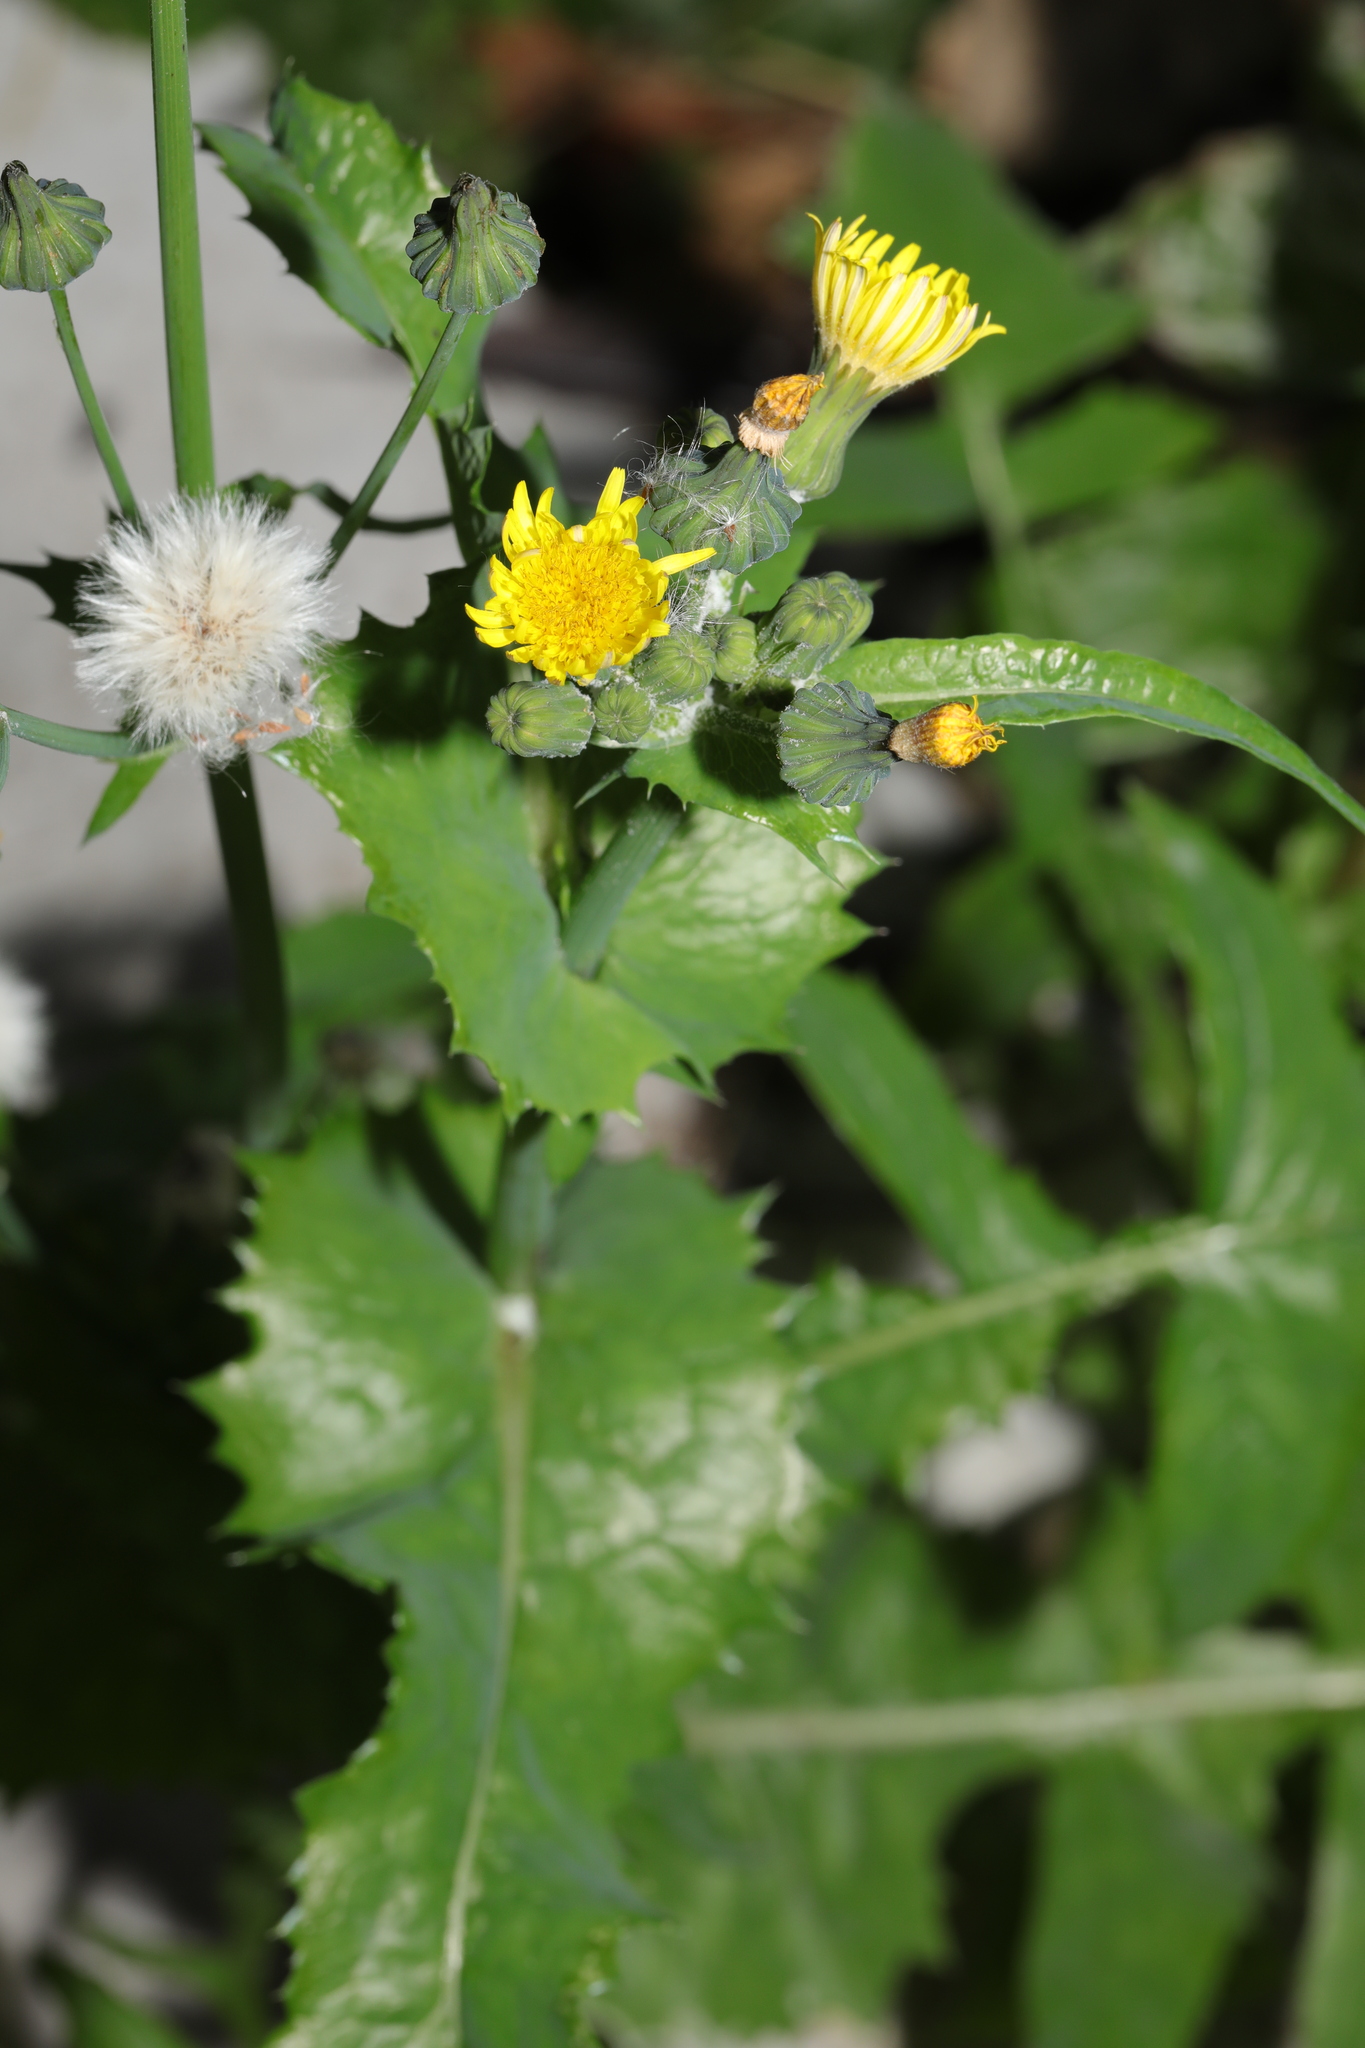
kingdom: Plantae
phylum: Tracheophyta
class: Magnoliopsida
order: Asterales
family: Asteraceae
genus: Sonchus
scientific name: Sonchus oleraceus
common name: Common sowthistle
